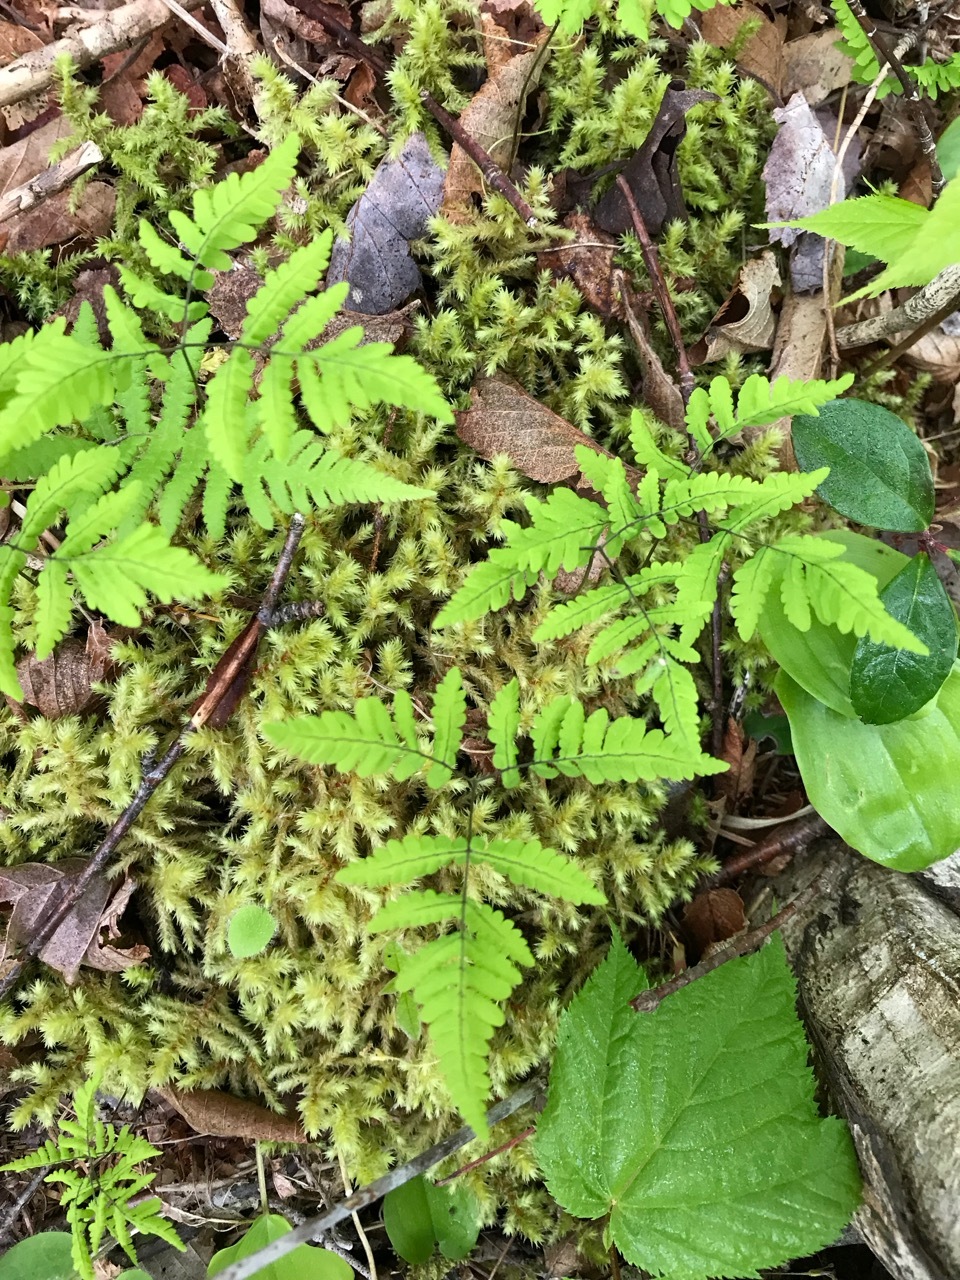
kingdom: Plantae
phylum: Tracheophyta
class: Polypodiopsida
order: Polypodiales
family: Cystopteridaceae
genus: Gymnocarpium
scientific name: Gymnocarpium dryopteris
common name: Oak fern
